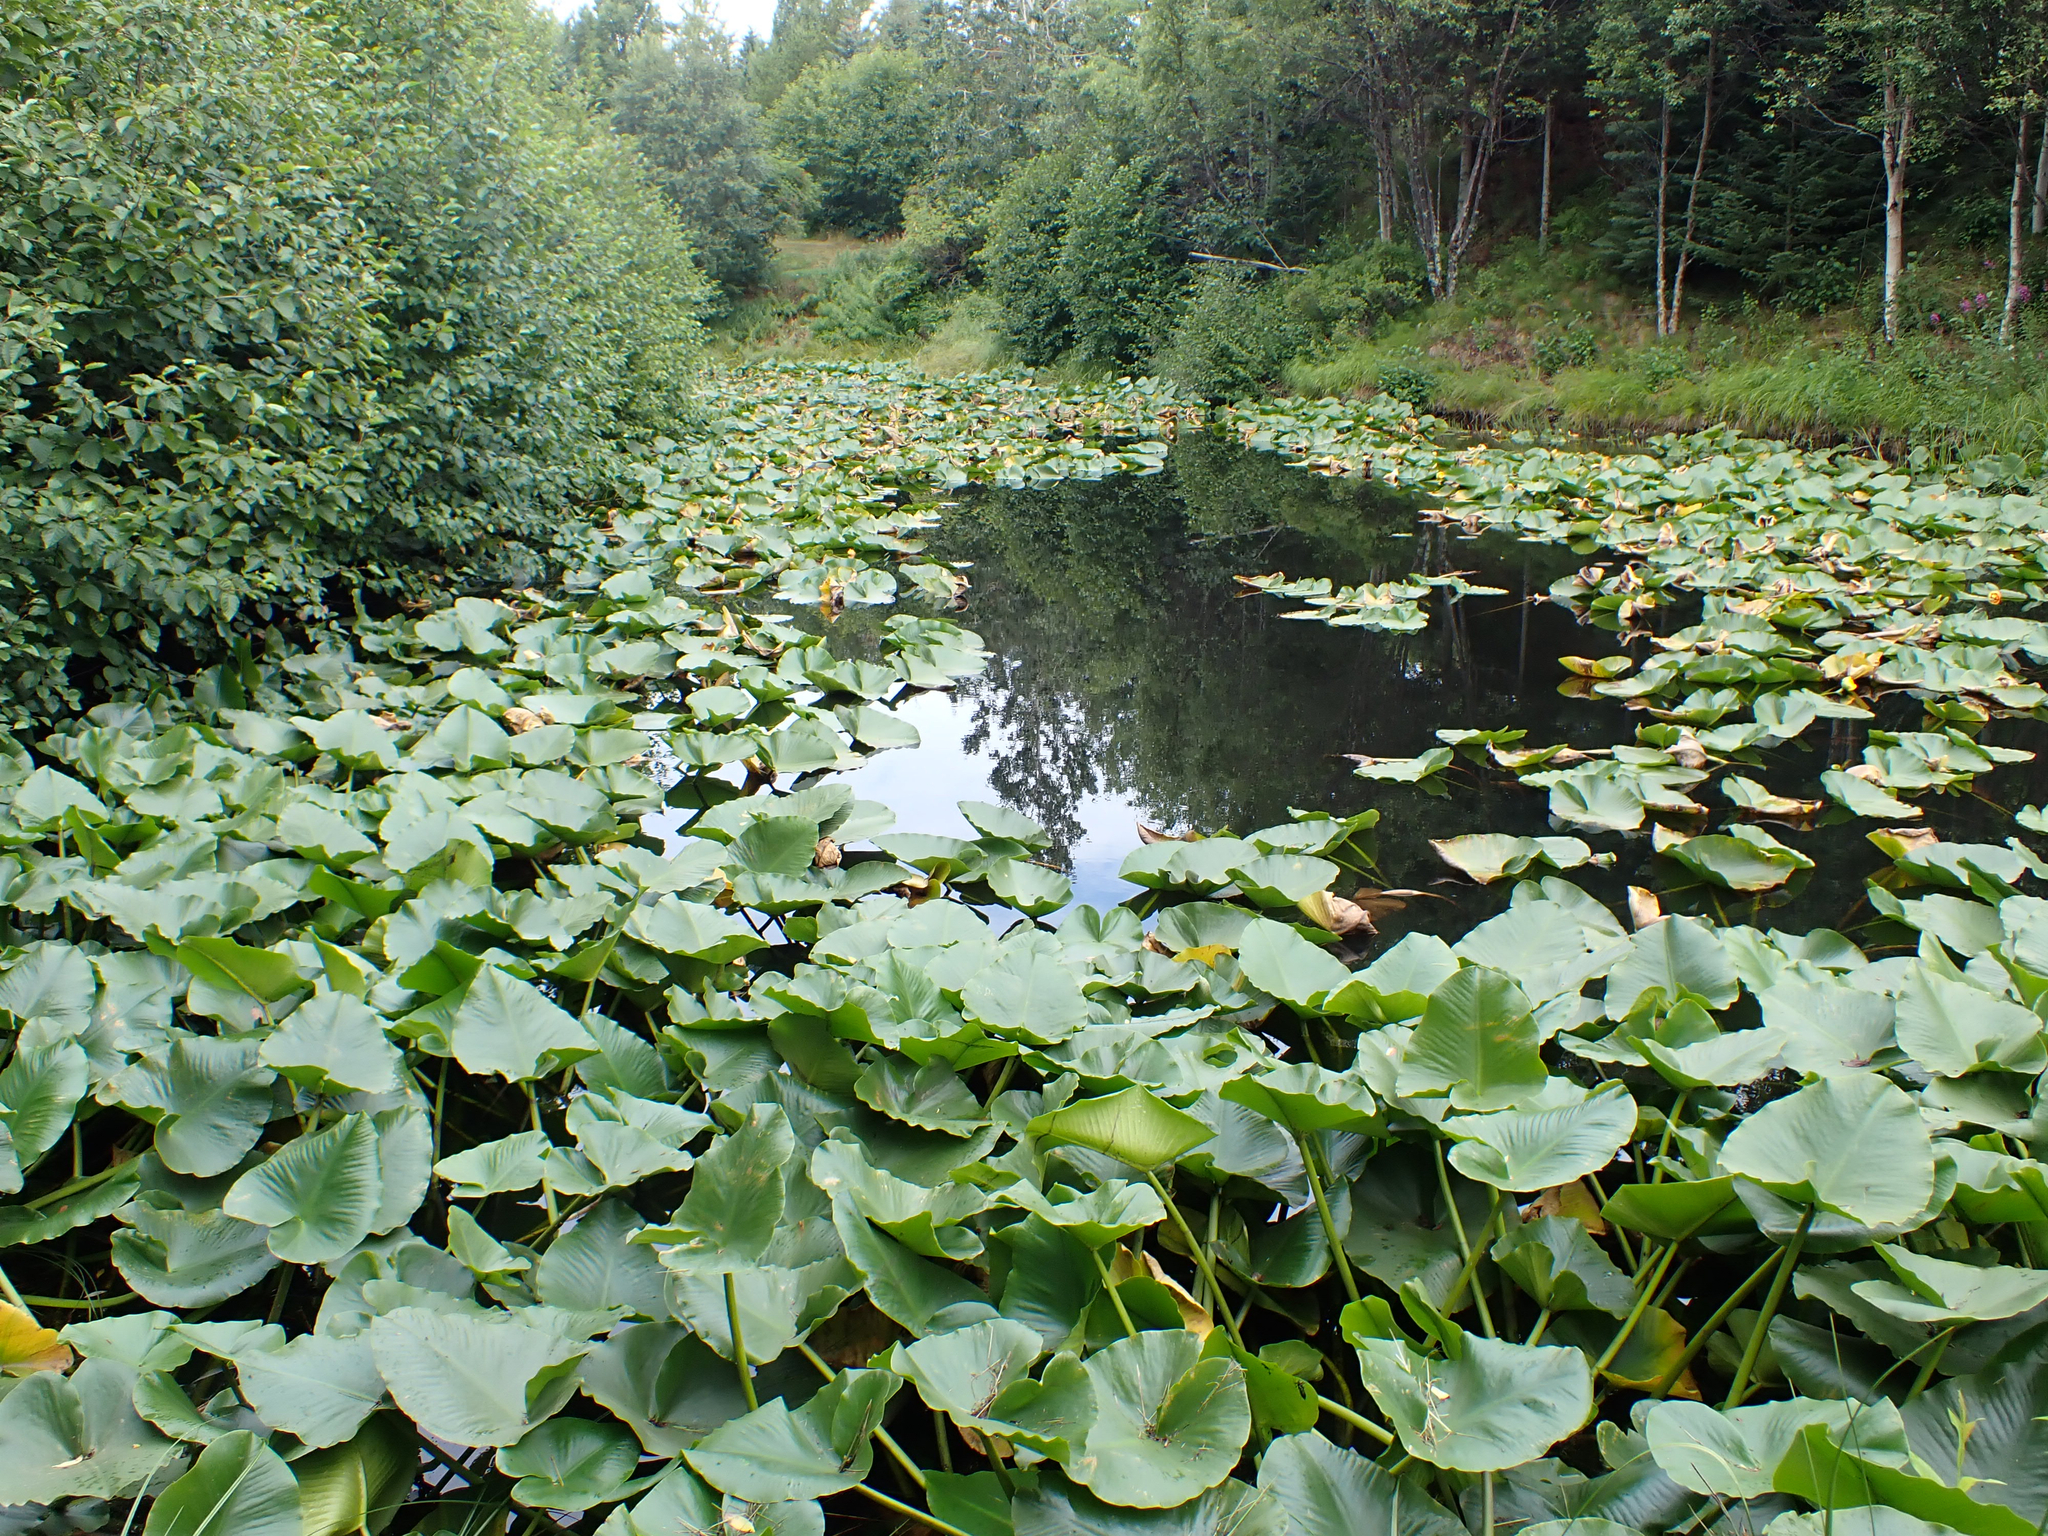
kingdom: Plantae
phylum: Tracheophyta
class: Magnoliopsida
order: Nymphaeales
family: Nymphaeaceae
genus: Nuphar
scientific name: Nuphar polysepala
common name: Rocky mountain cow-lily
